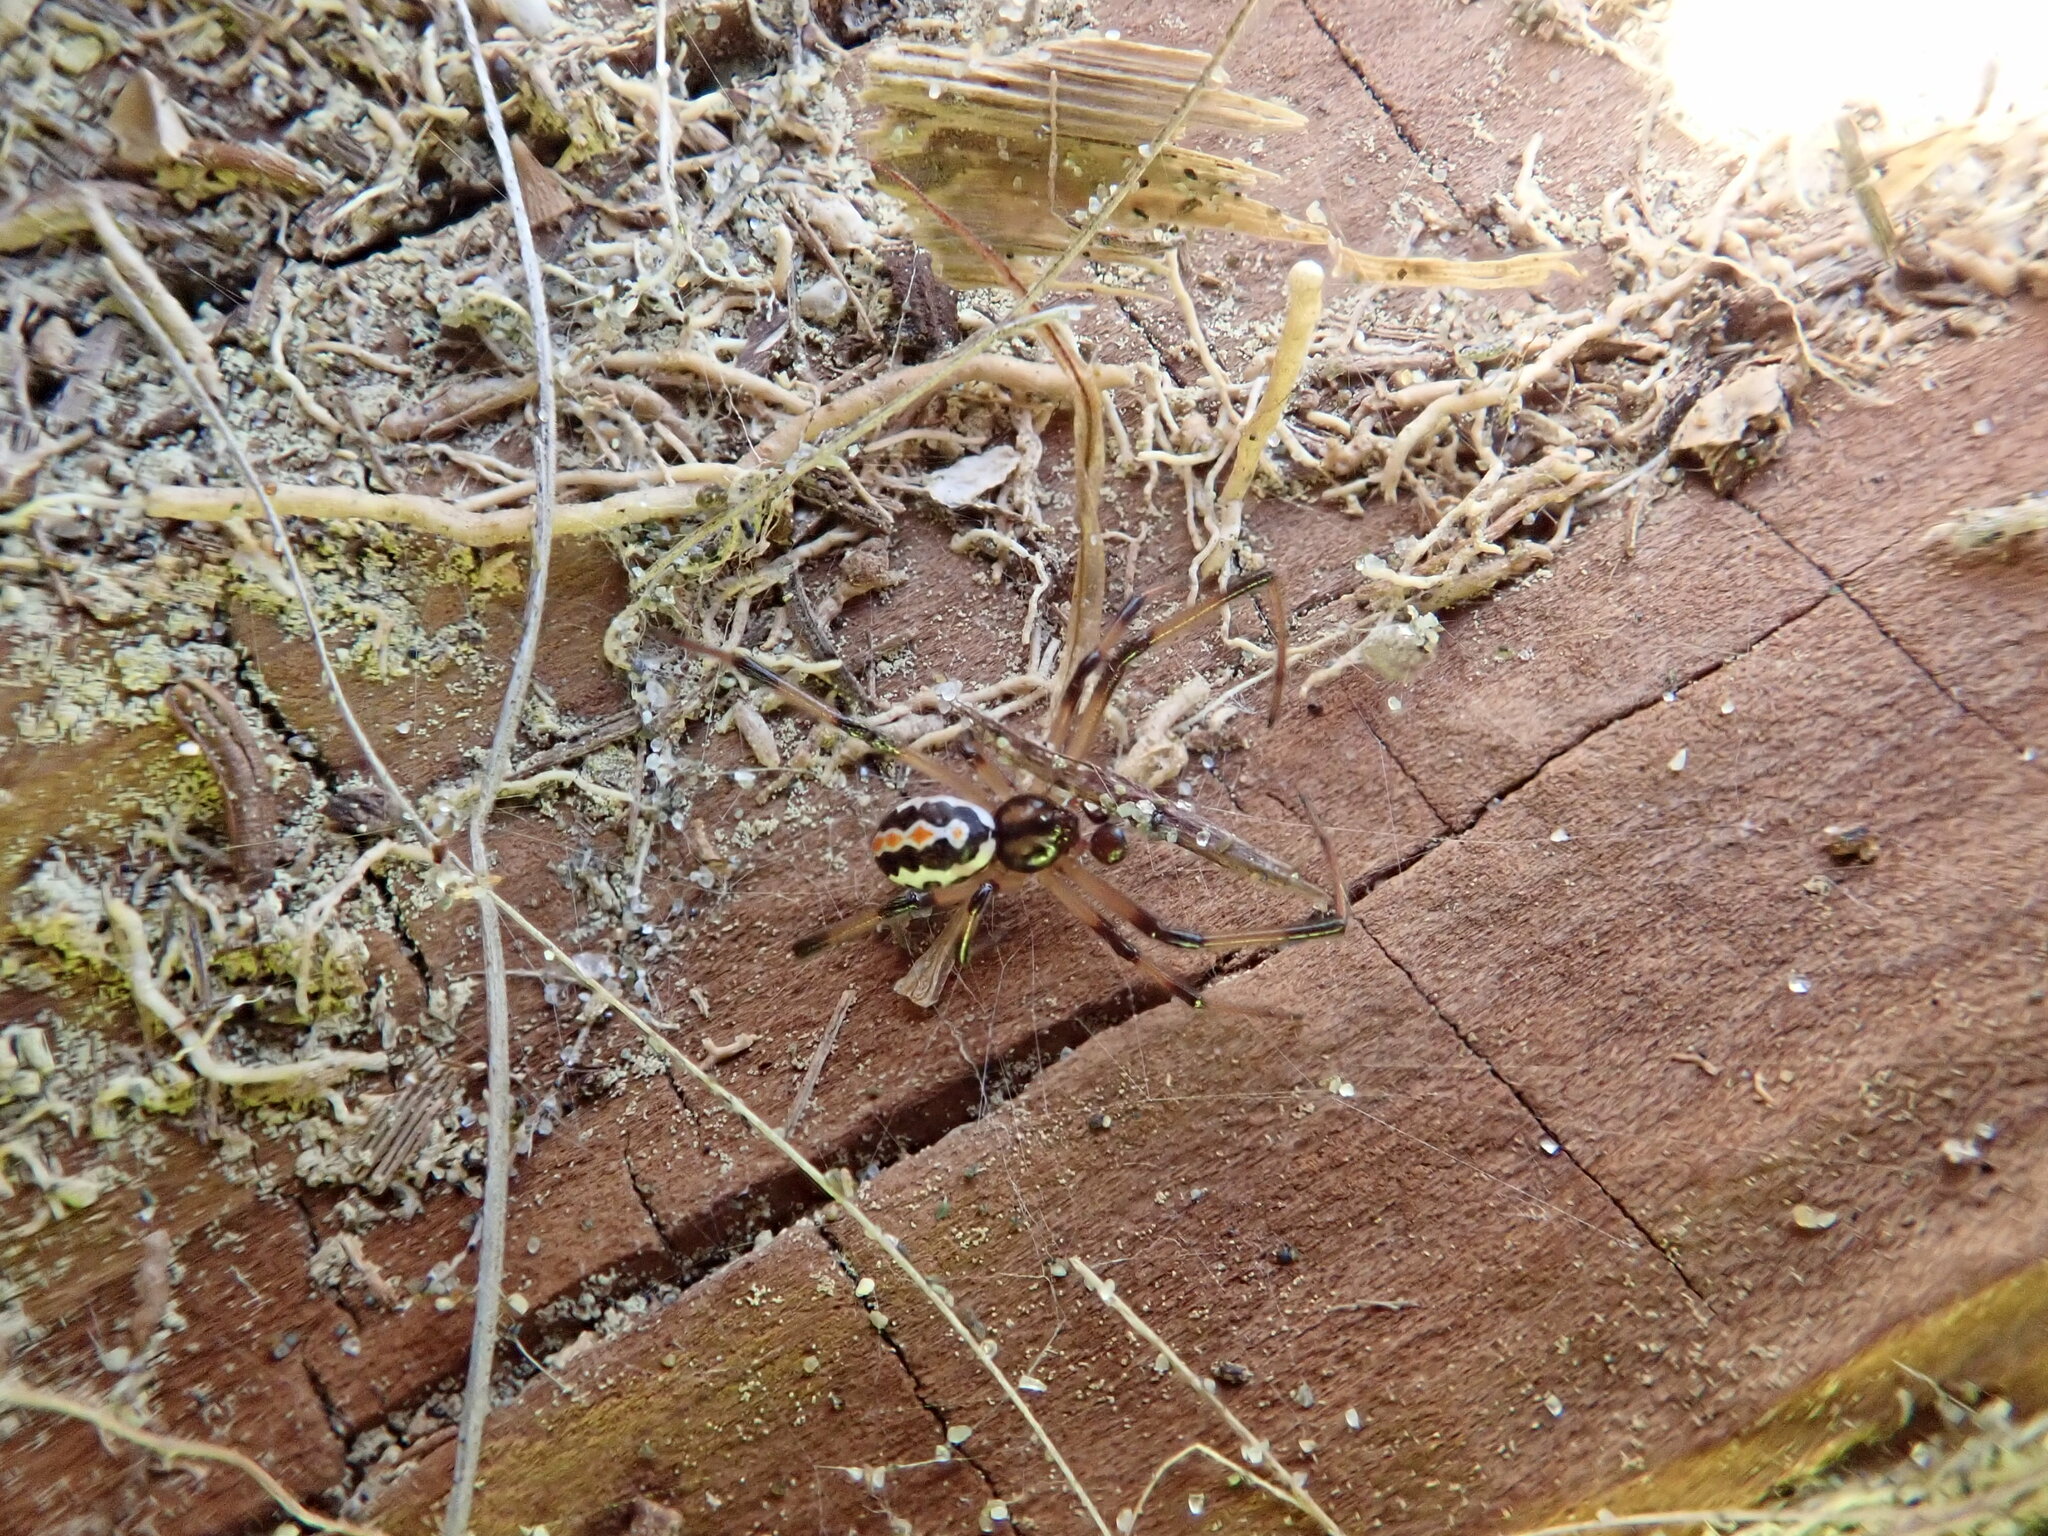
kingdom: Animalia
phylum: Arthropoda
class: Arachnida
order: Araneae
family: Theridiidae
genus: Latrodectus
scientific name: Latrodectus katipo
